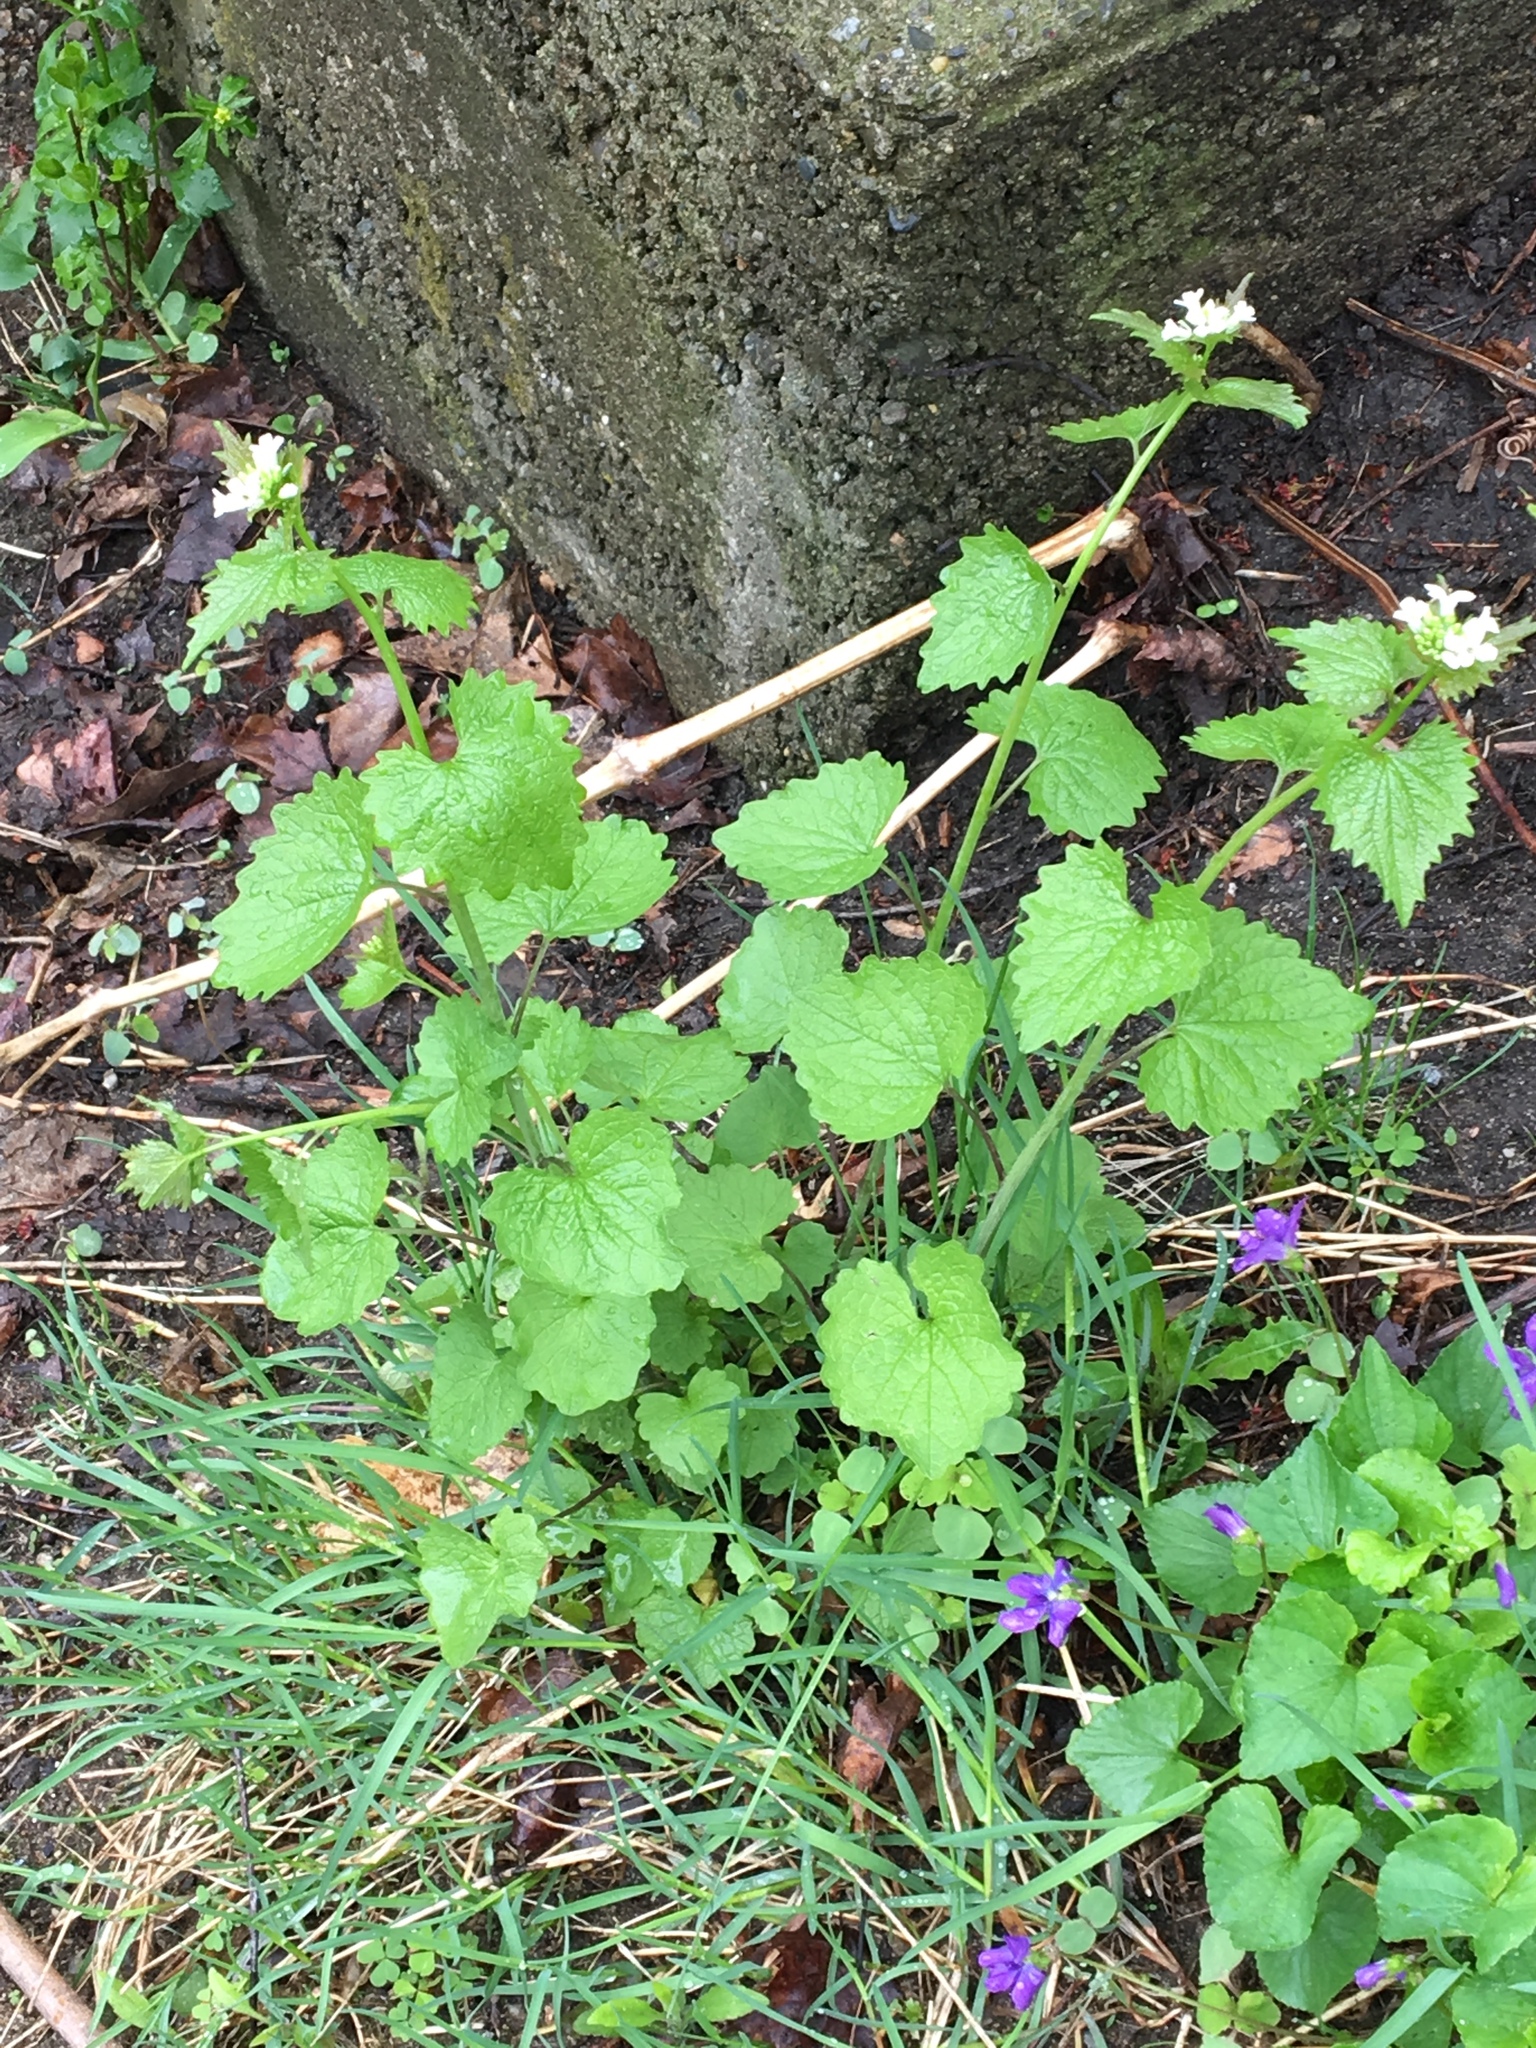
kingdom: Plantae
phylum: Tracheophyta
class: Magnoliopsida
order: Brassicales
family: Brassicaceae
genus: Alliaria
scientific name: Alliaria petiolata
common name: Garlic mustard
